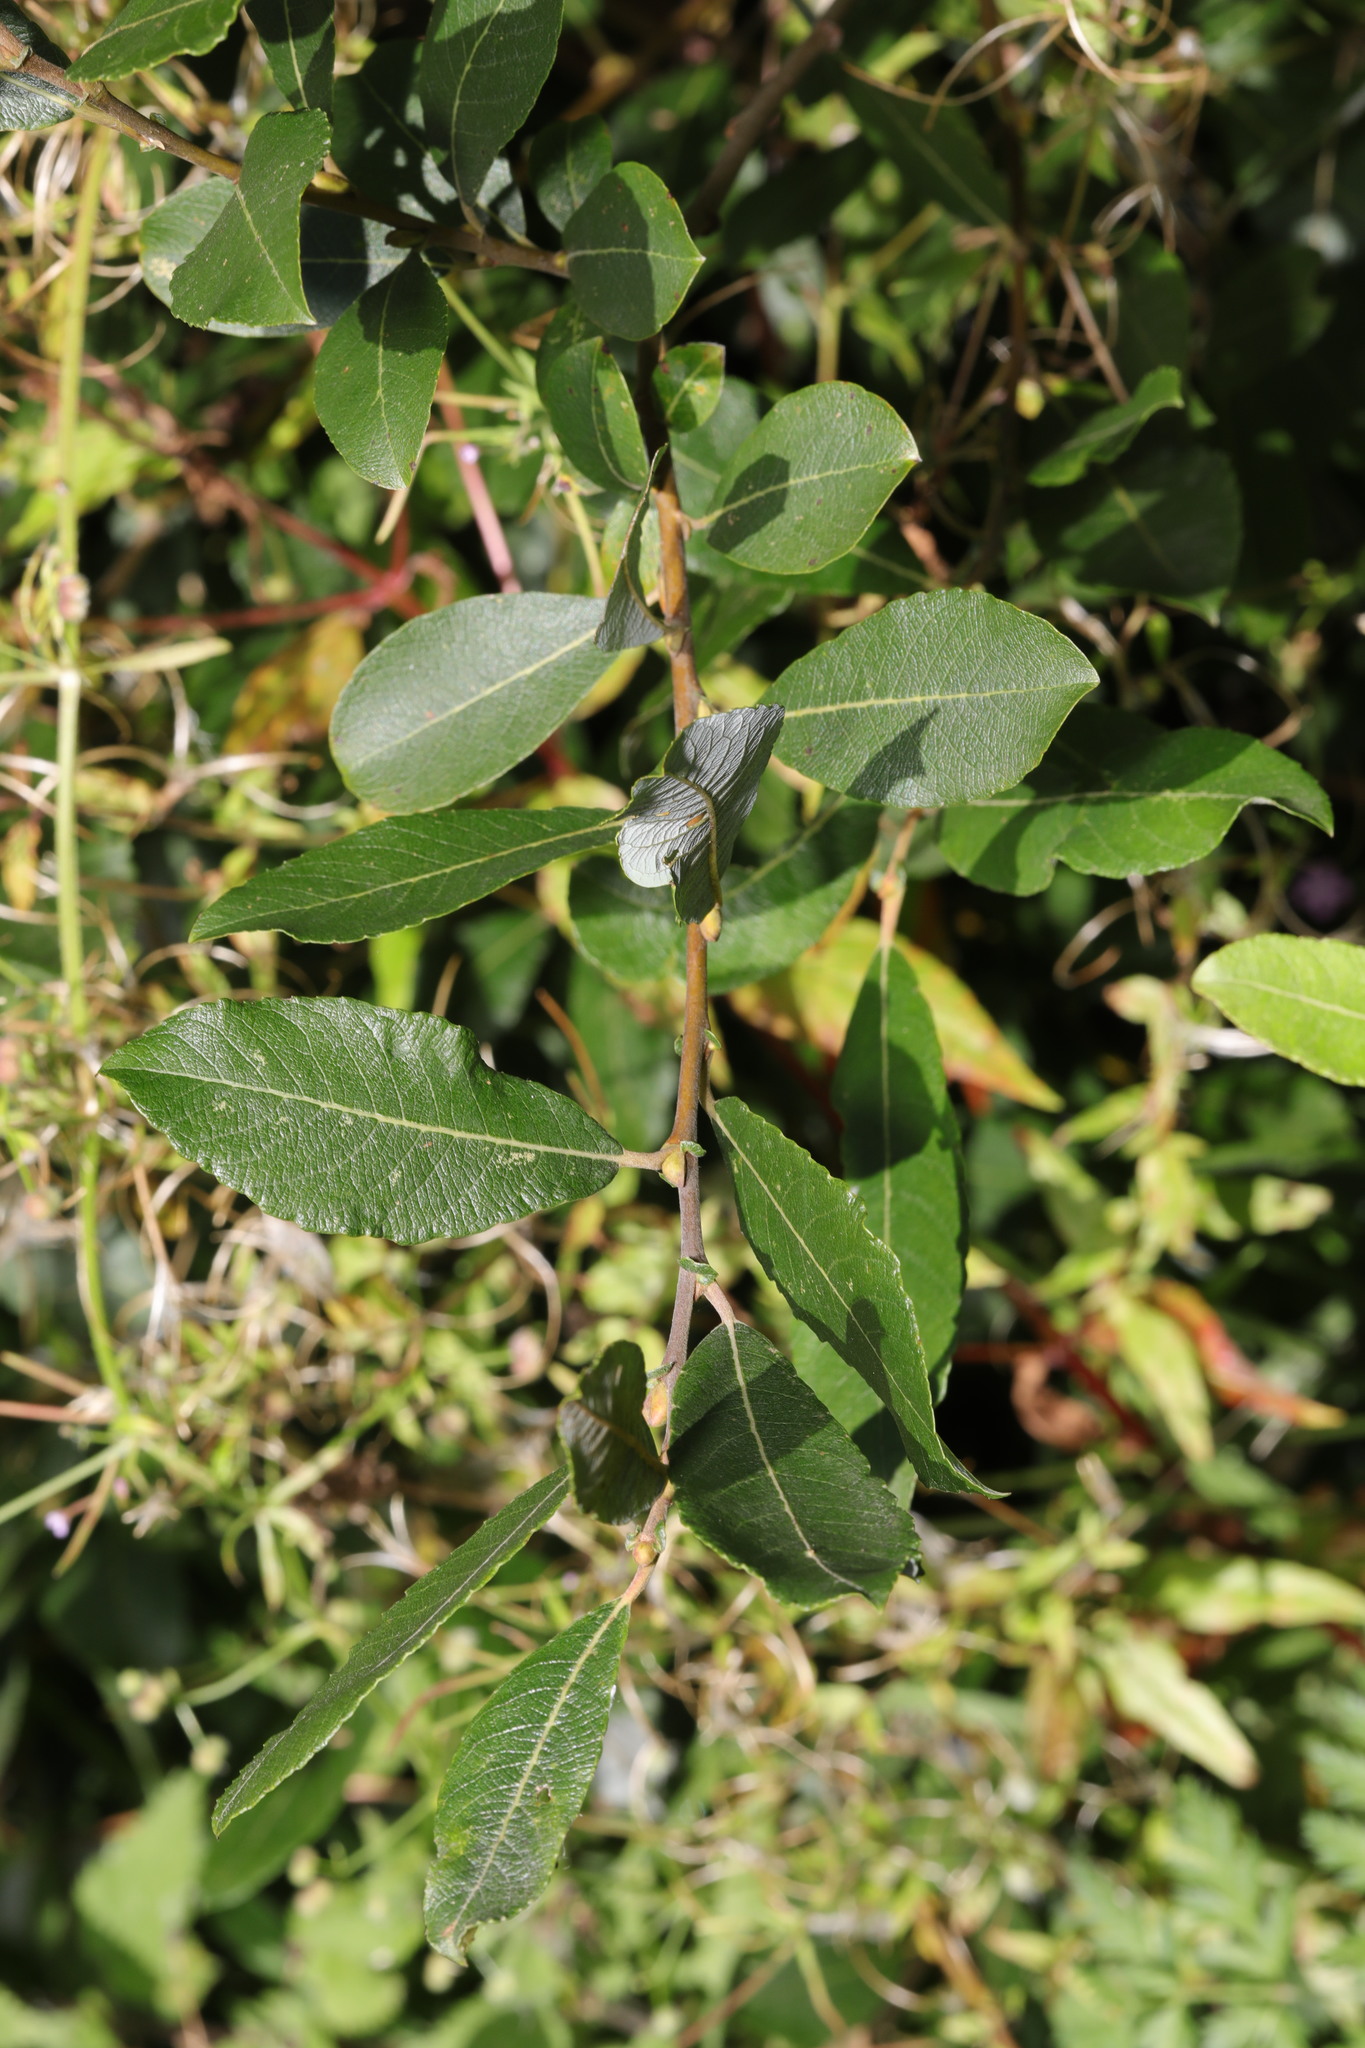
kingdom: Plantae
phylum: Tracheophyta
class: Magnoliopsida
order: Malpighiales
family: Salicaceae
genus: Salix
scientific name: Salix cinerea
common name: Common sallow
